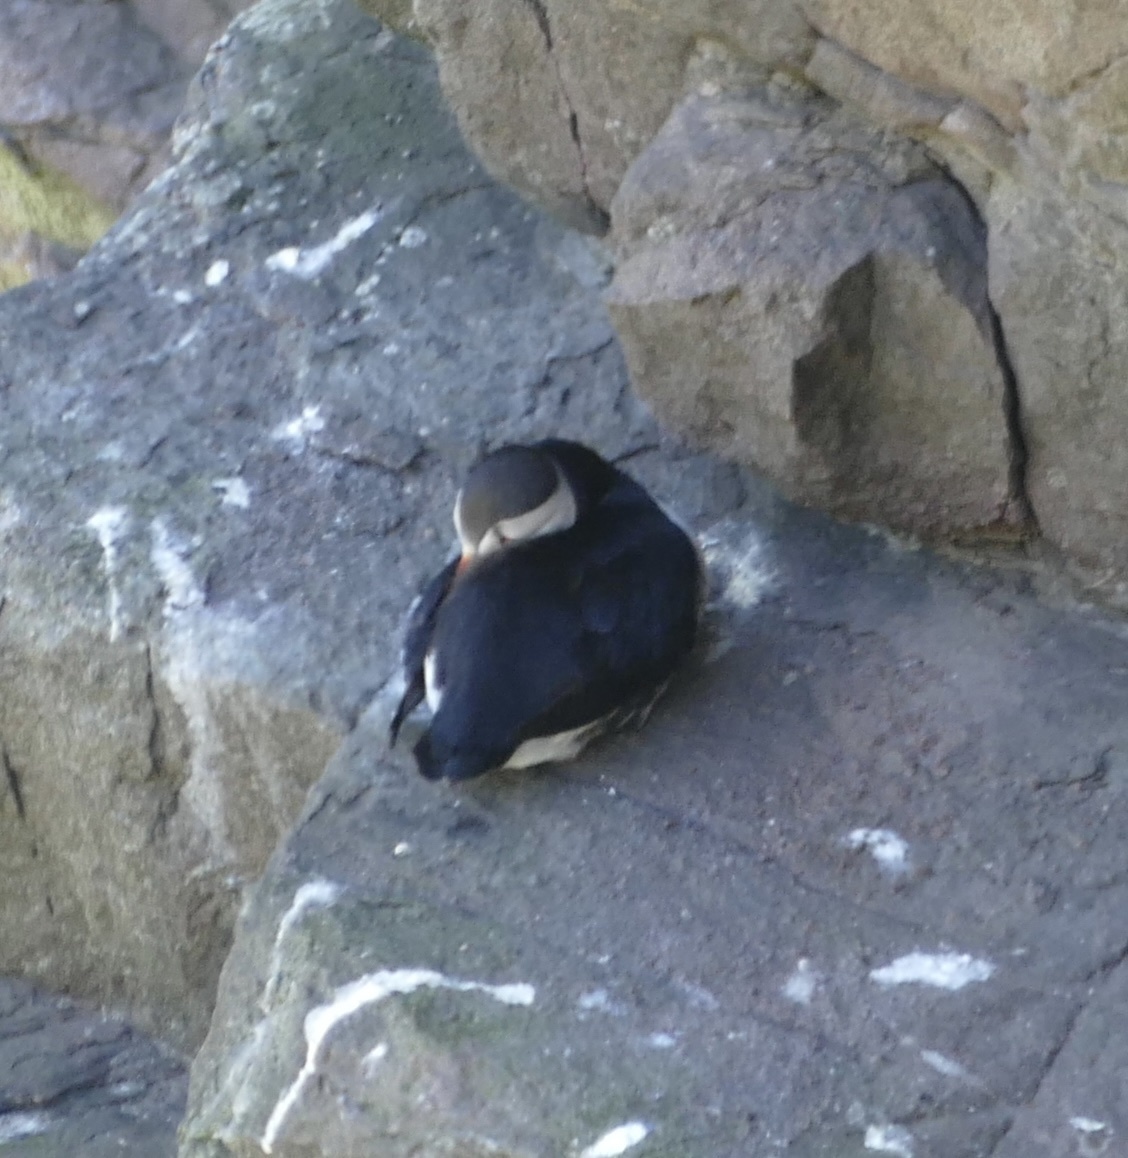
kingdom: Animalia
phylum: Chordata
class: Aves
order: Charadriiformes
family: Alcidae
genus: Fratercula
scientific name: Fratercula arctica
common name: Atlantic puffin
